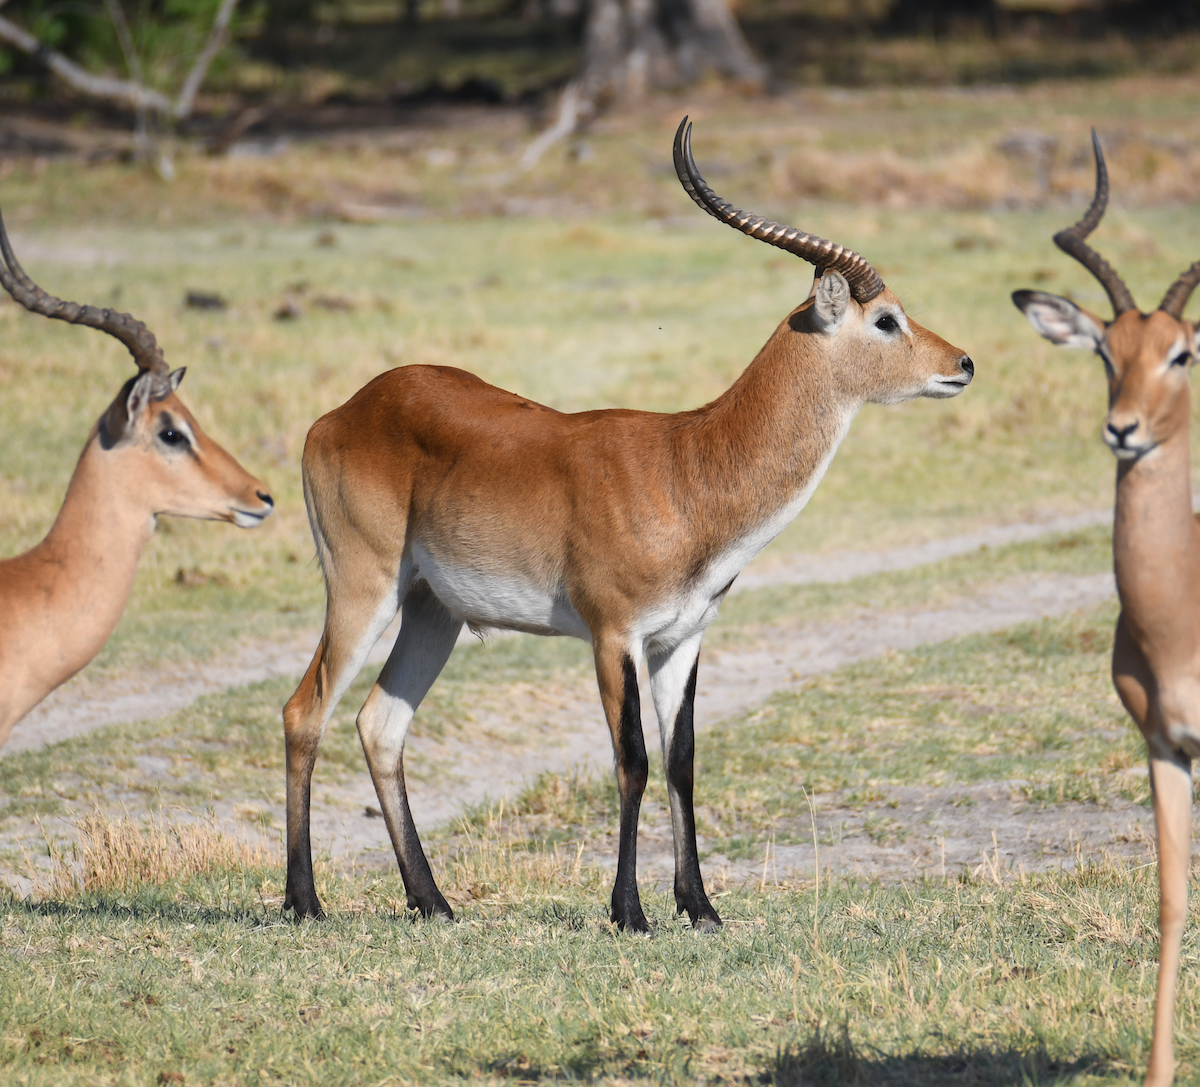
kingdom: Animalia
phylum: Chordata
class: Mammalia
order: Artiodactyla
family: Bovidae
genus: Kobus
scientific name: Kobus leche
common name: Lechwe
